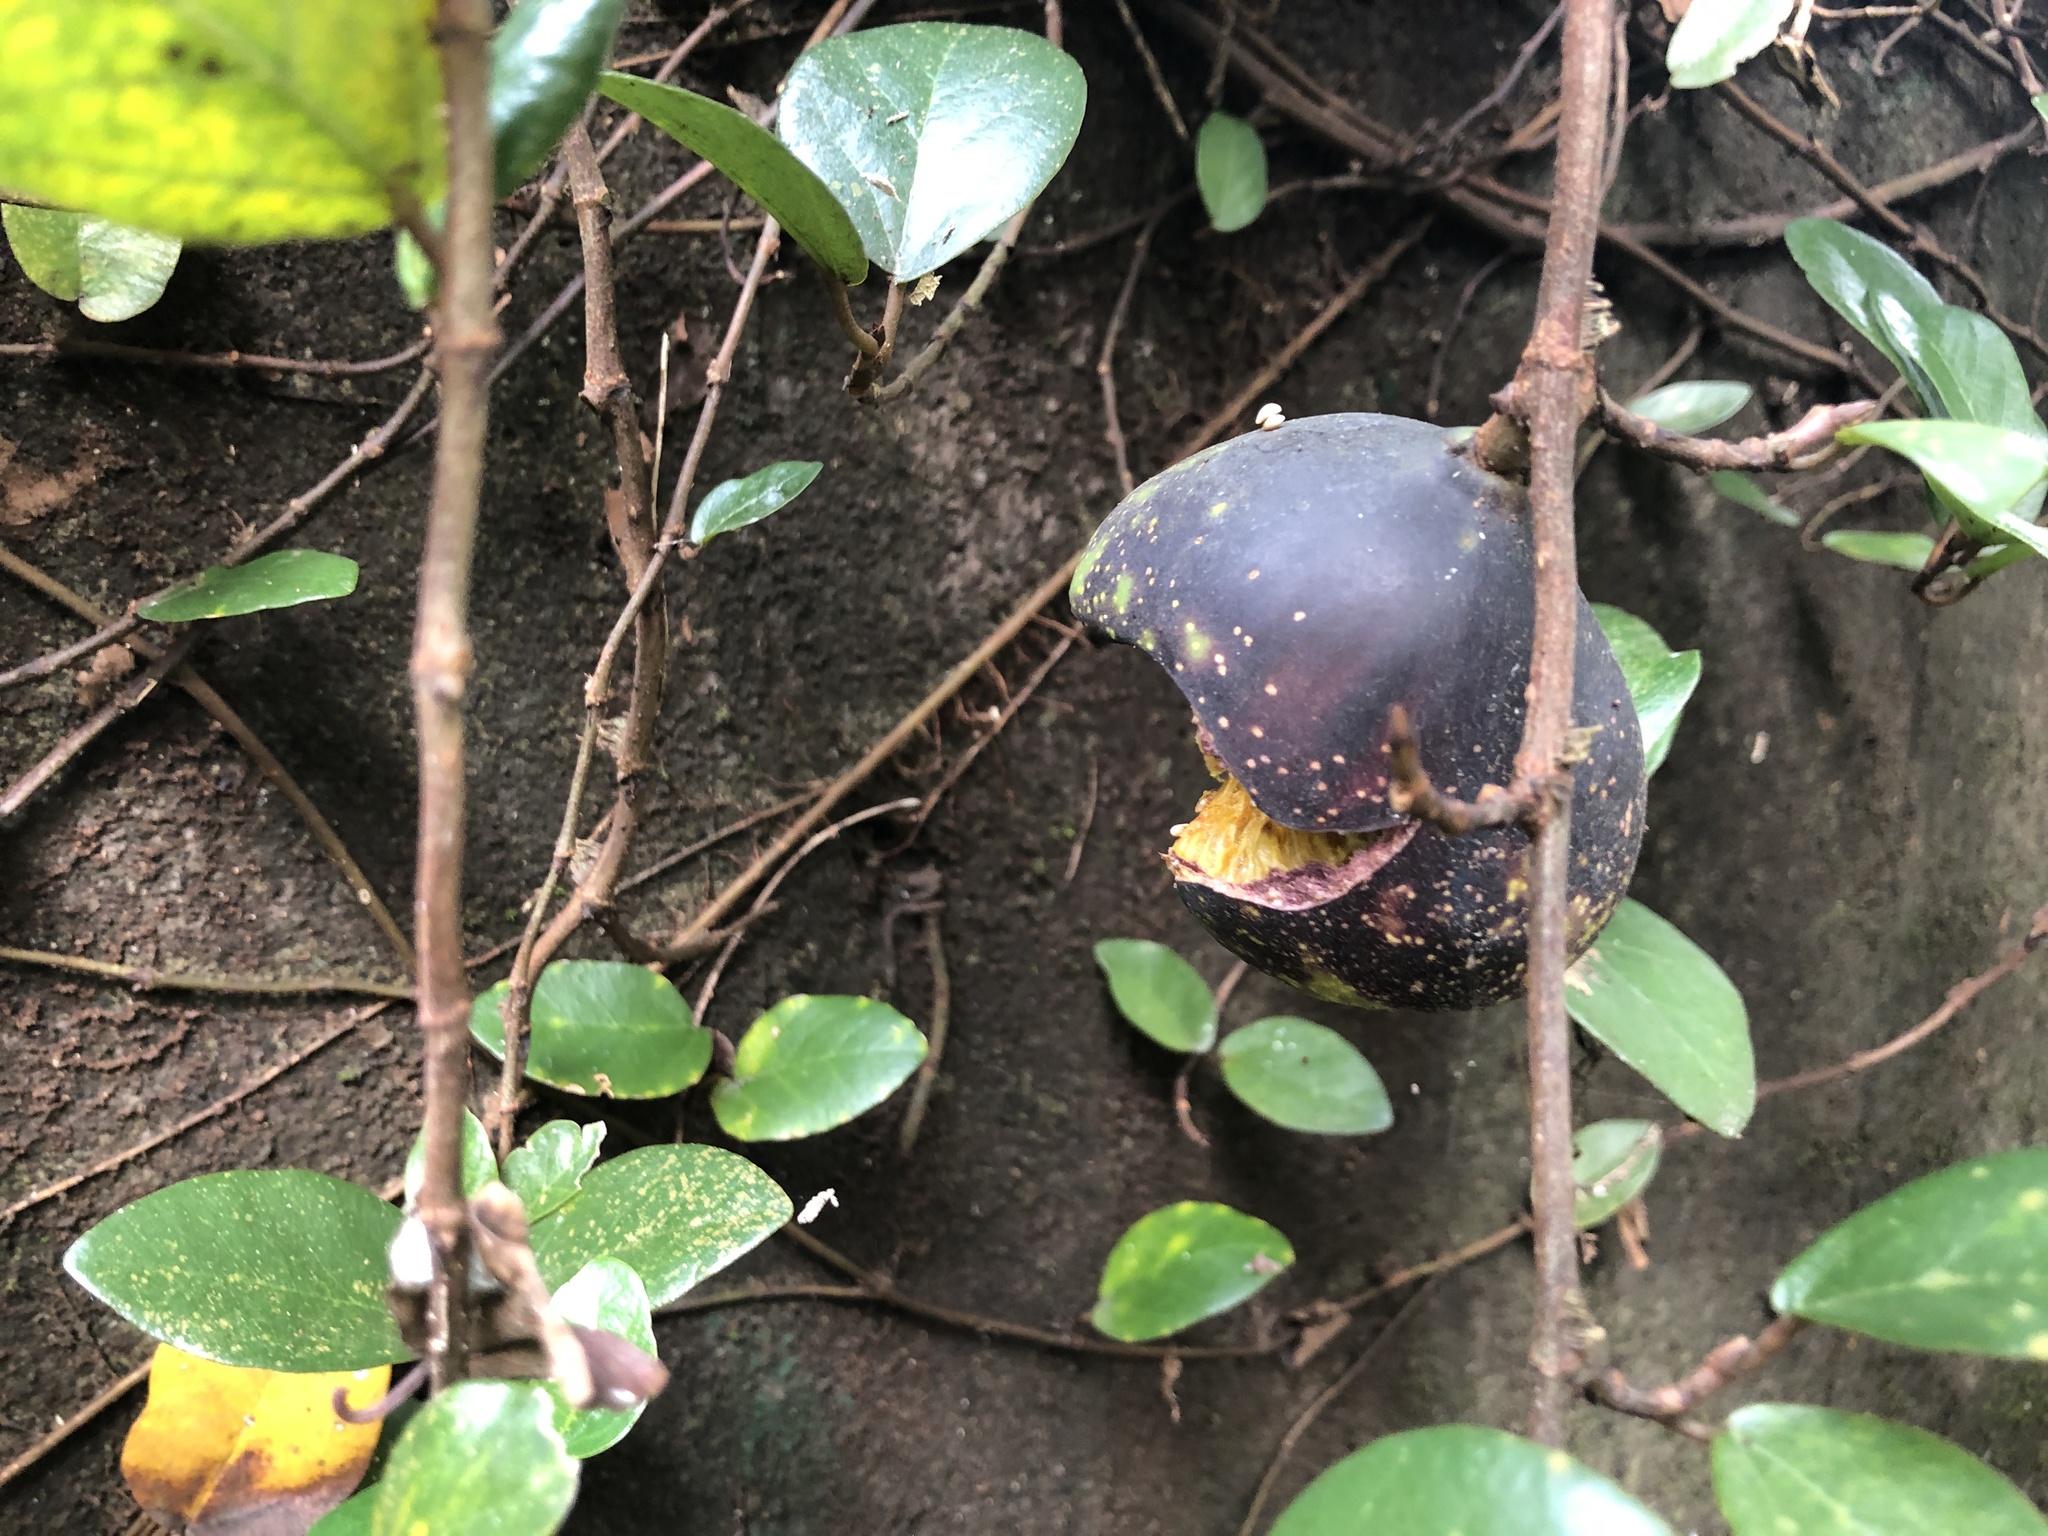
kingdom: Plantae
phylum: Tracheophyta
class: Magnoliopsida
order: Rosales
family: Moraceae
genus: Ficus
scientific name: Ficus pumila
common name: Climbingfig
